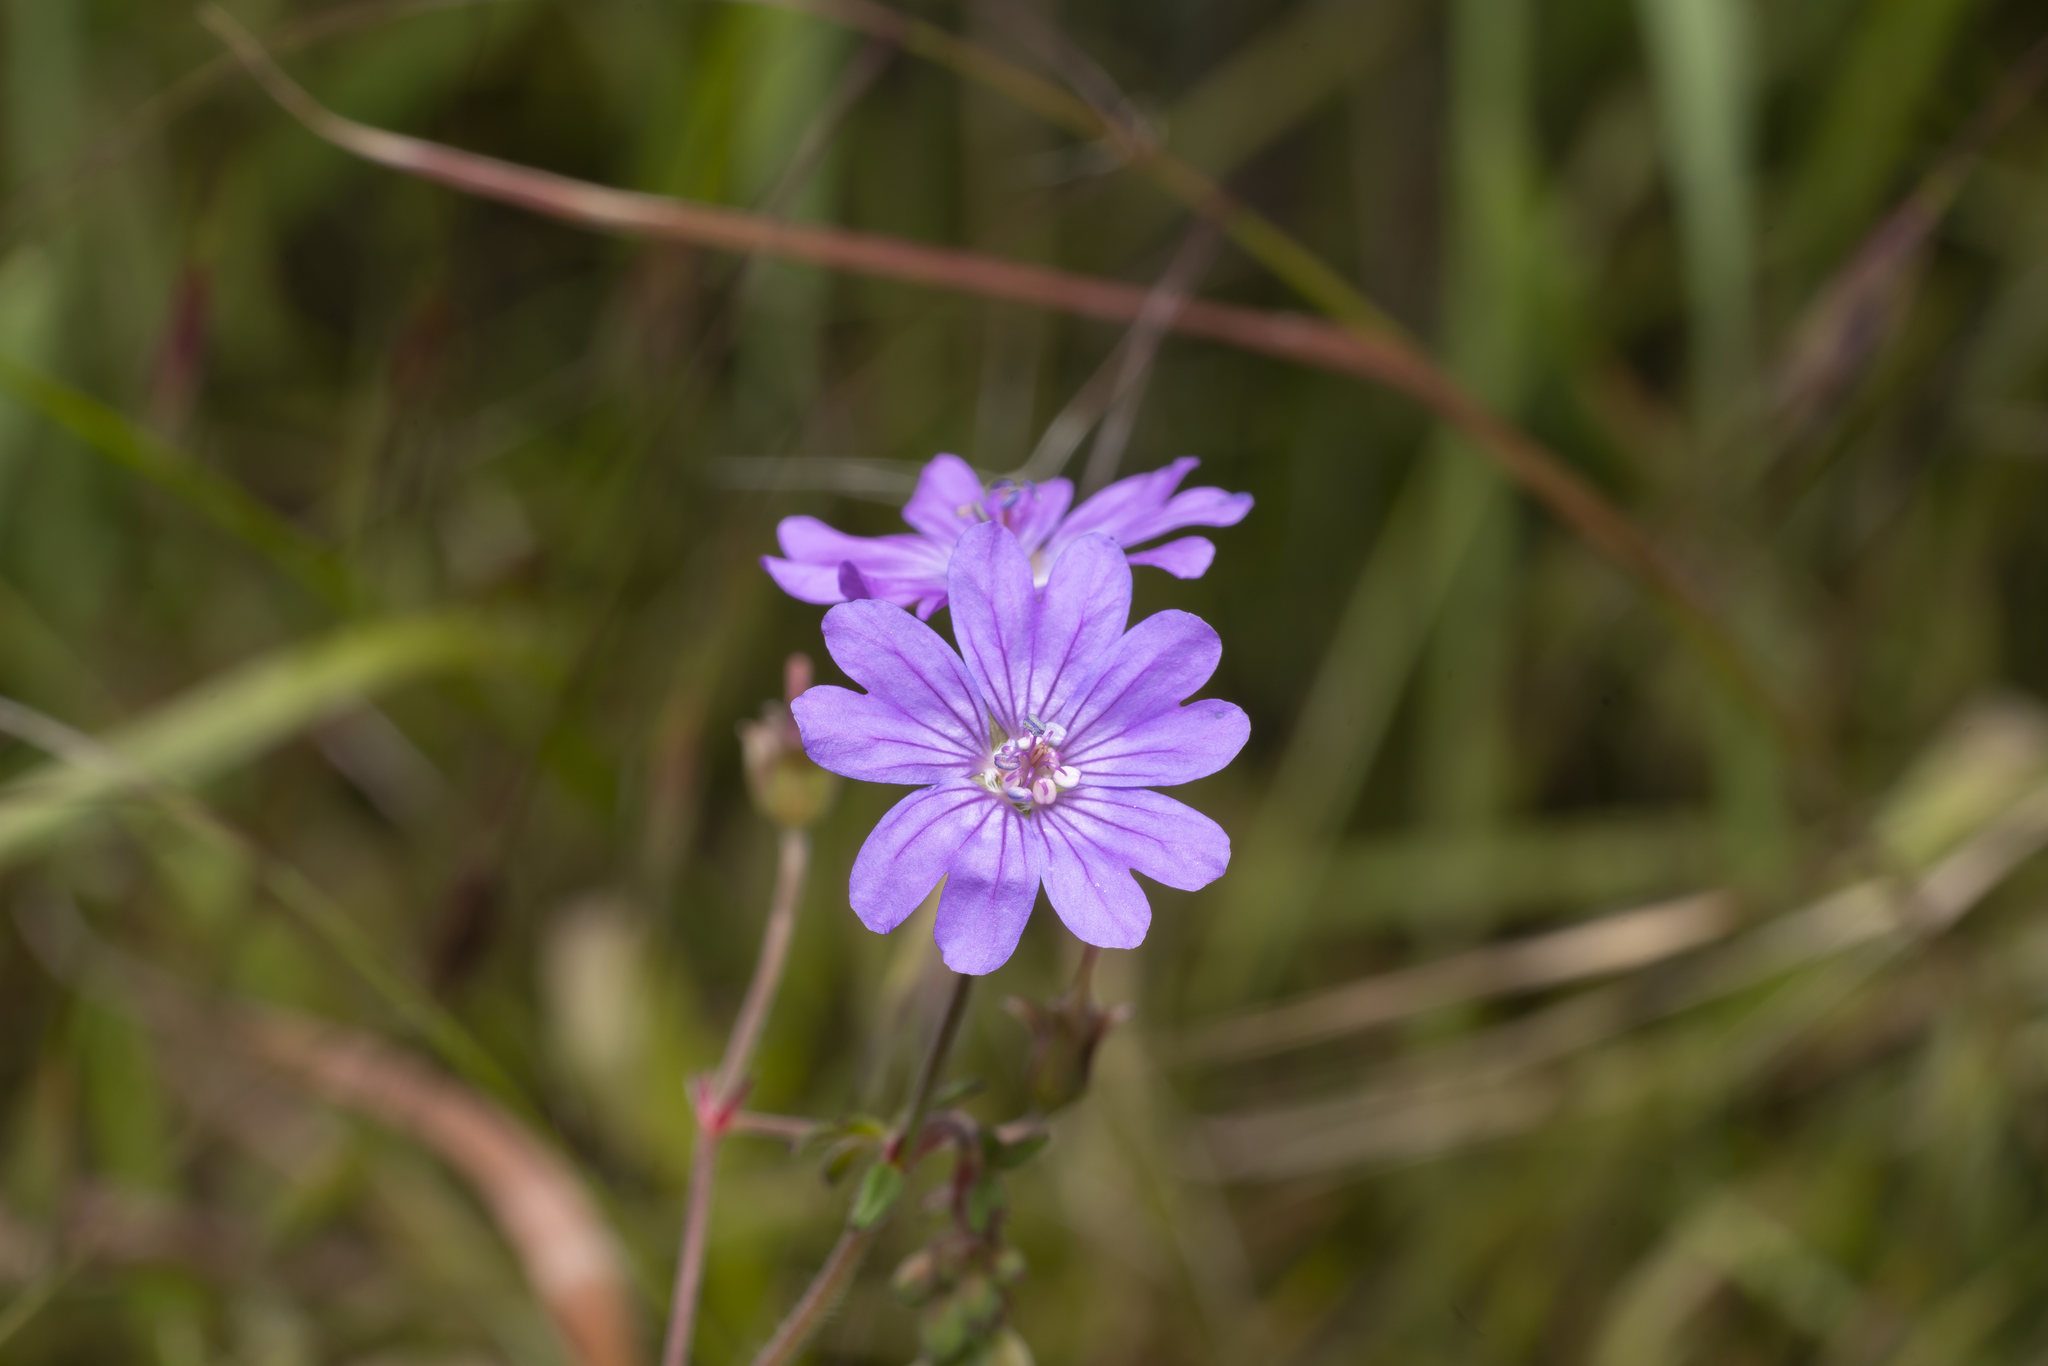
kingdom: Plantae
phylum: Tracheophyta
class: Magnoliopsida
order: Geraniales
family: Geraniaceae
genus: Geranium
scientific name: Geranium pyrenaicum
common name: Hedgerow crane's-bill
